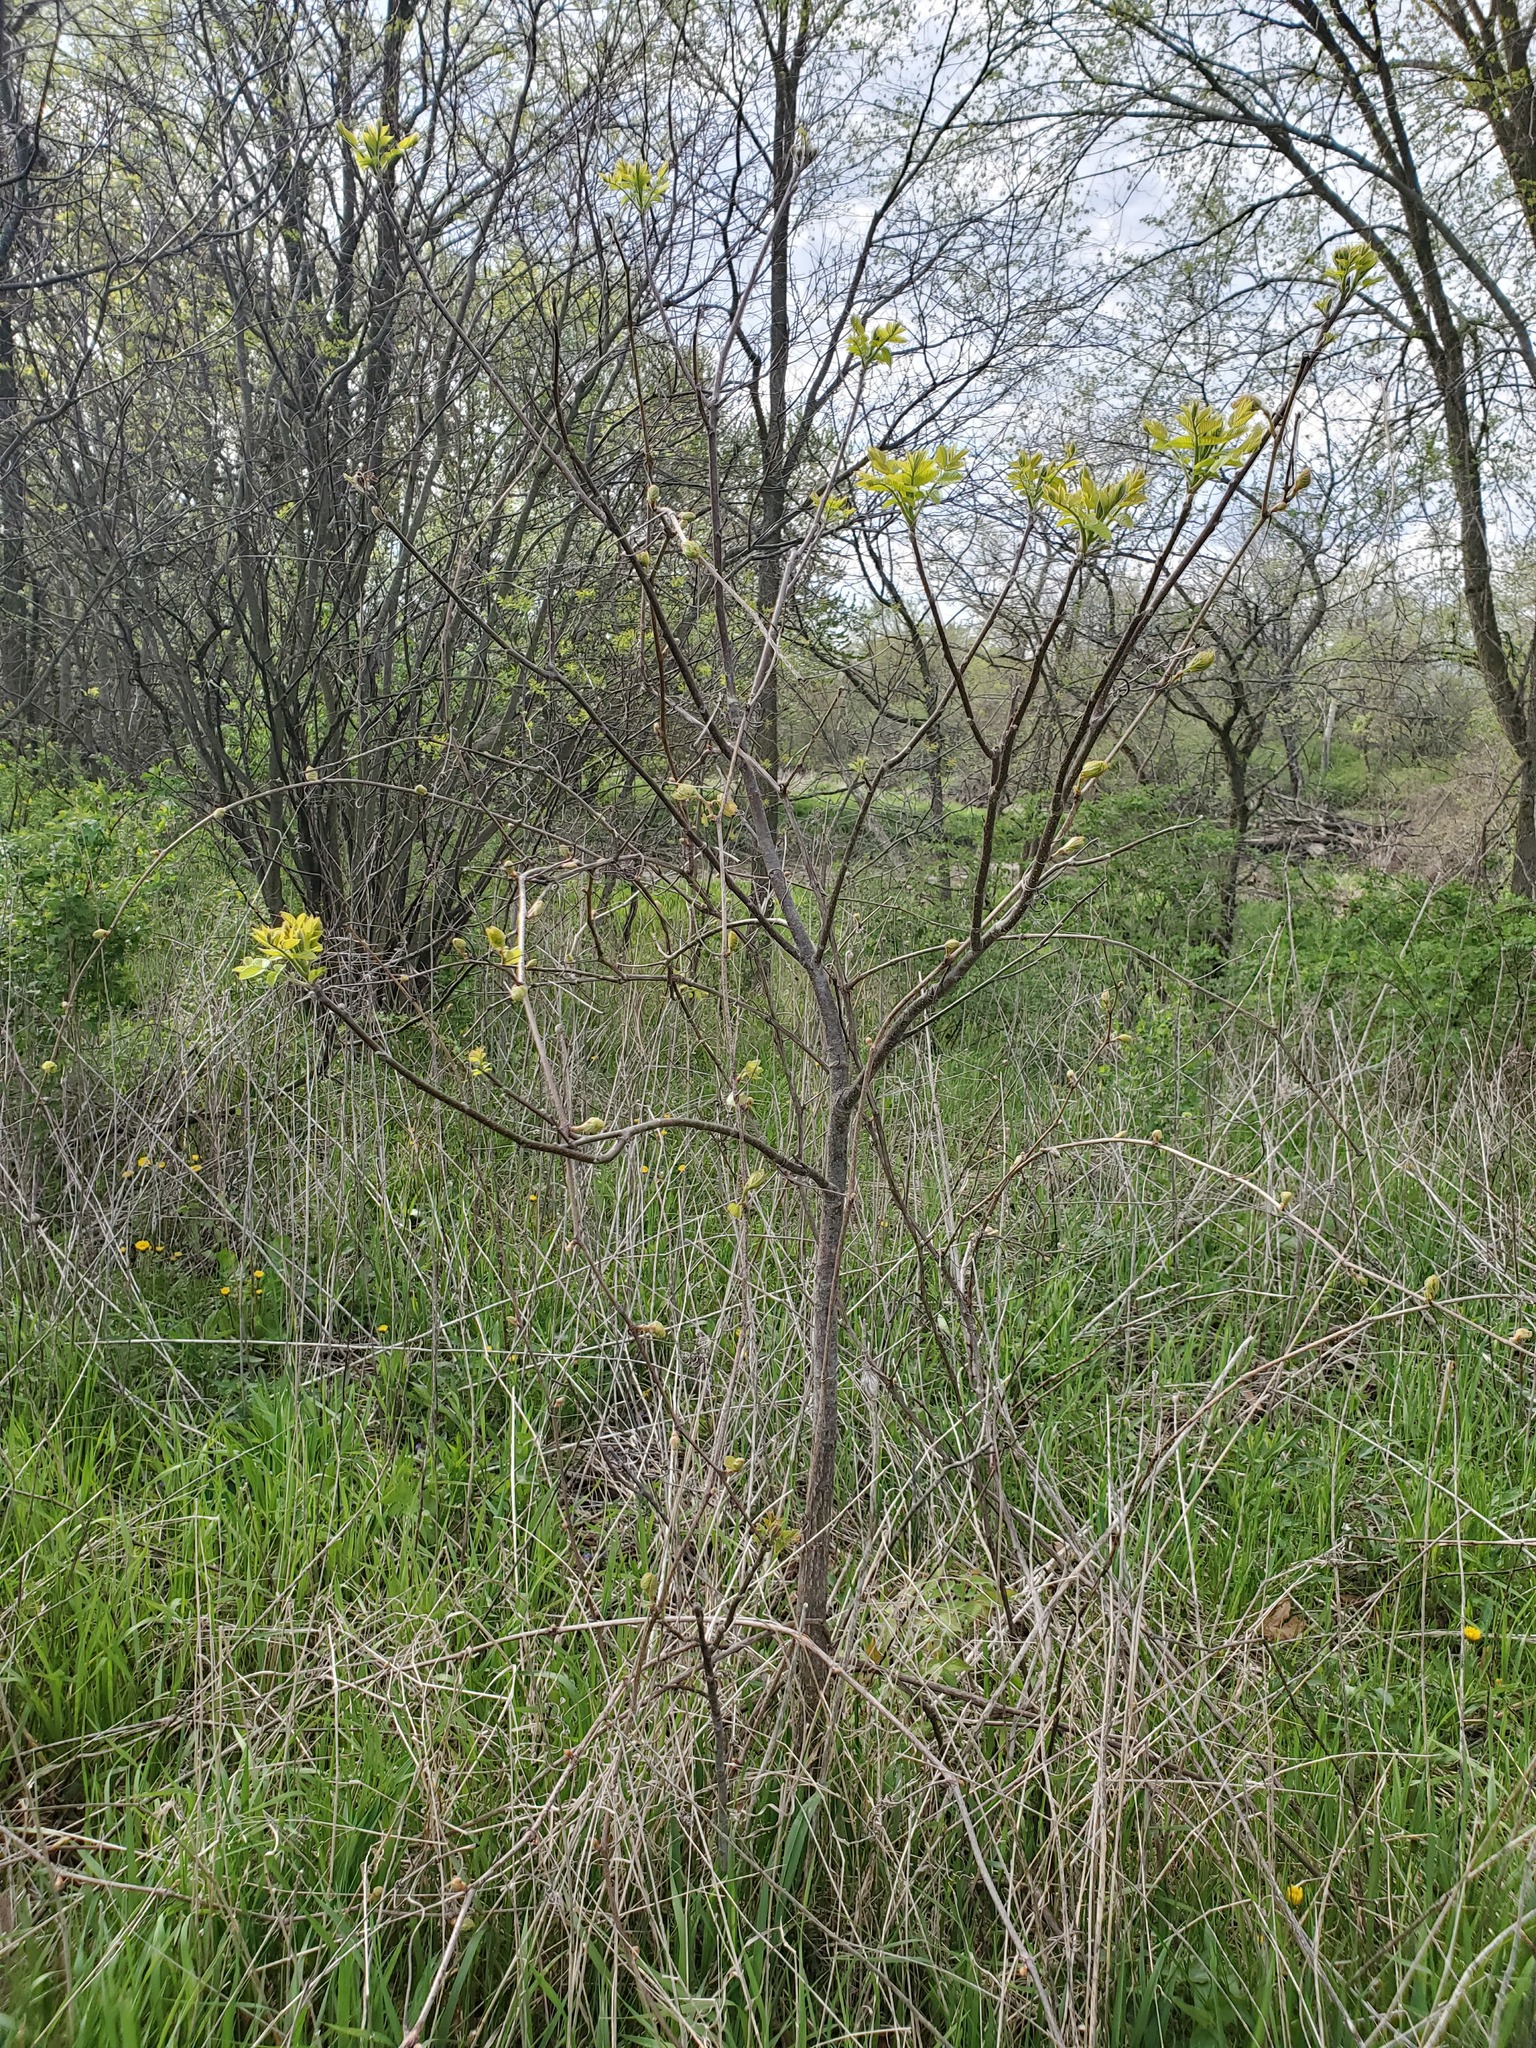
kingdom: Plantae
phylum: Tracheophyta
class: Magnoliopsida
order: Sapindales
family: Sapindaceae
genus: Acer
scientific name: Acer negundo
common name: Ashleaf maple
